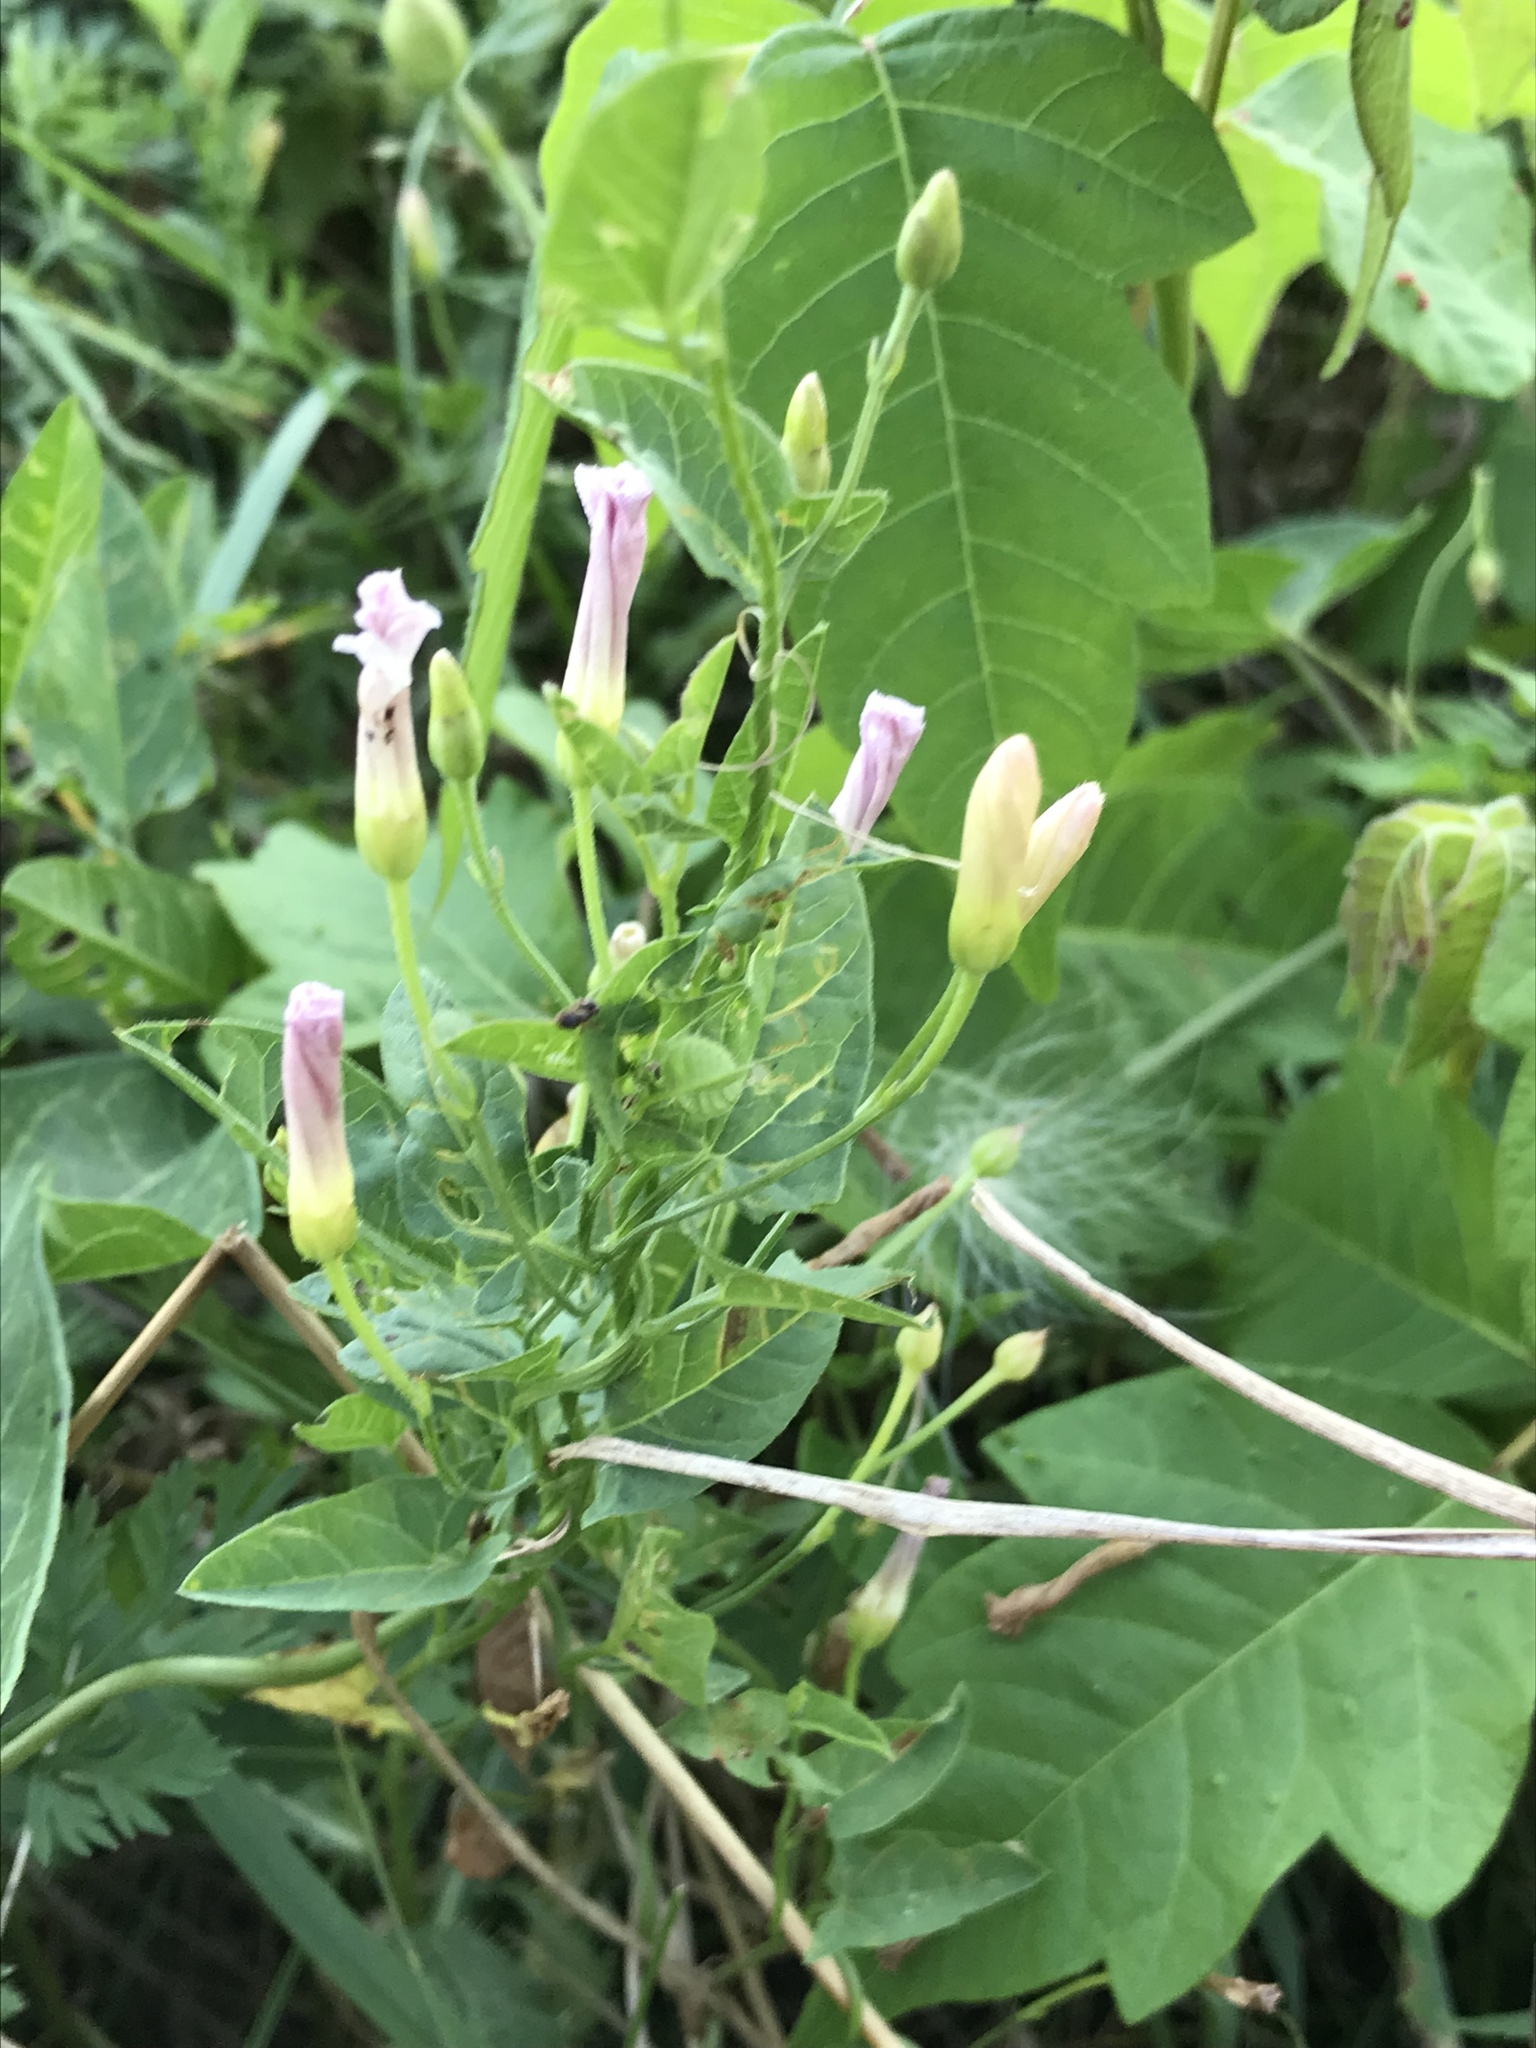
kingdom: Plantae
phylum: Tracheophyta
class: Magnoliopsida
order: Solanales
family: Convolvulaceae
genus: Convolvulus
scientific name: Convolvulus arvensis
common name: Field bindweed
